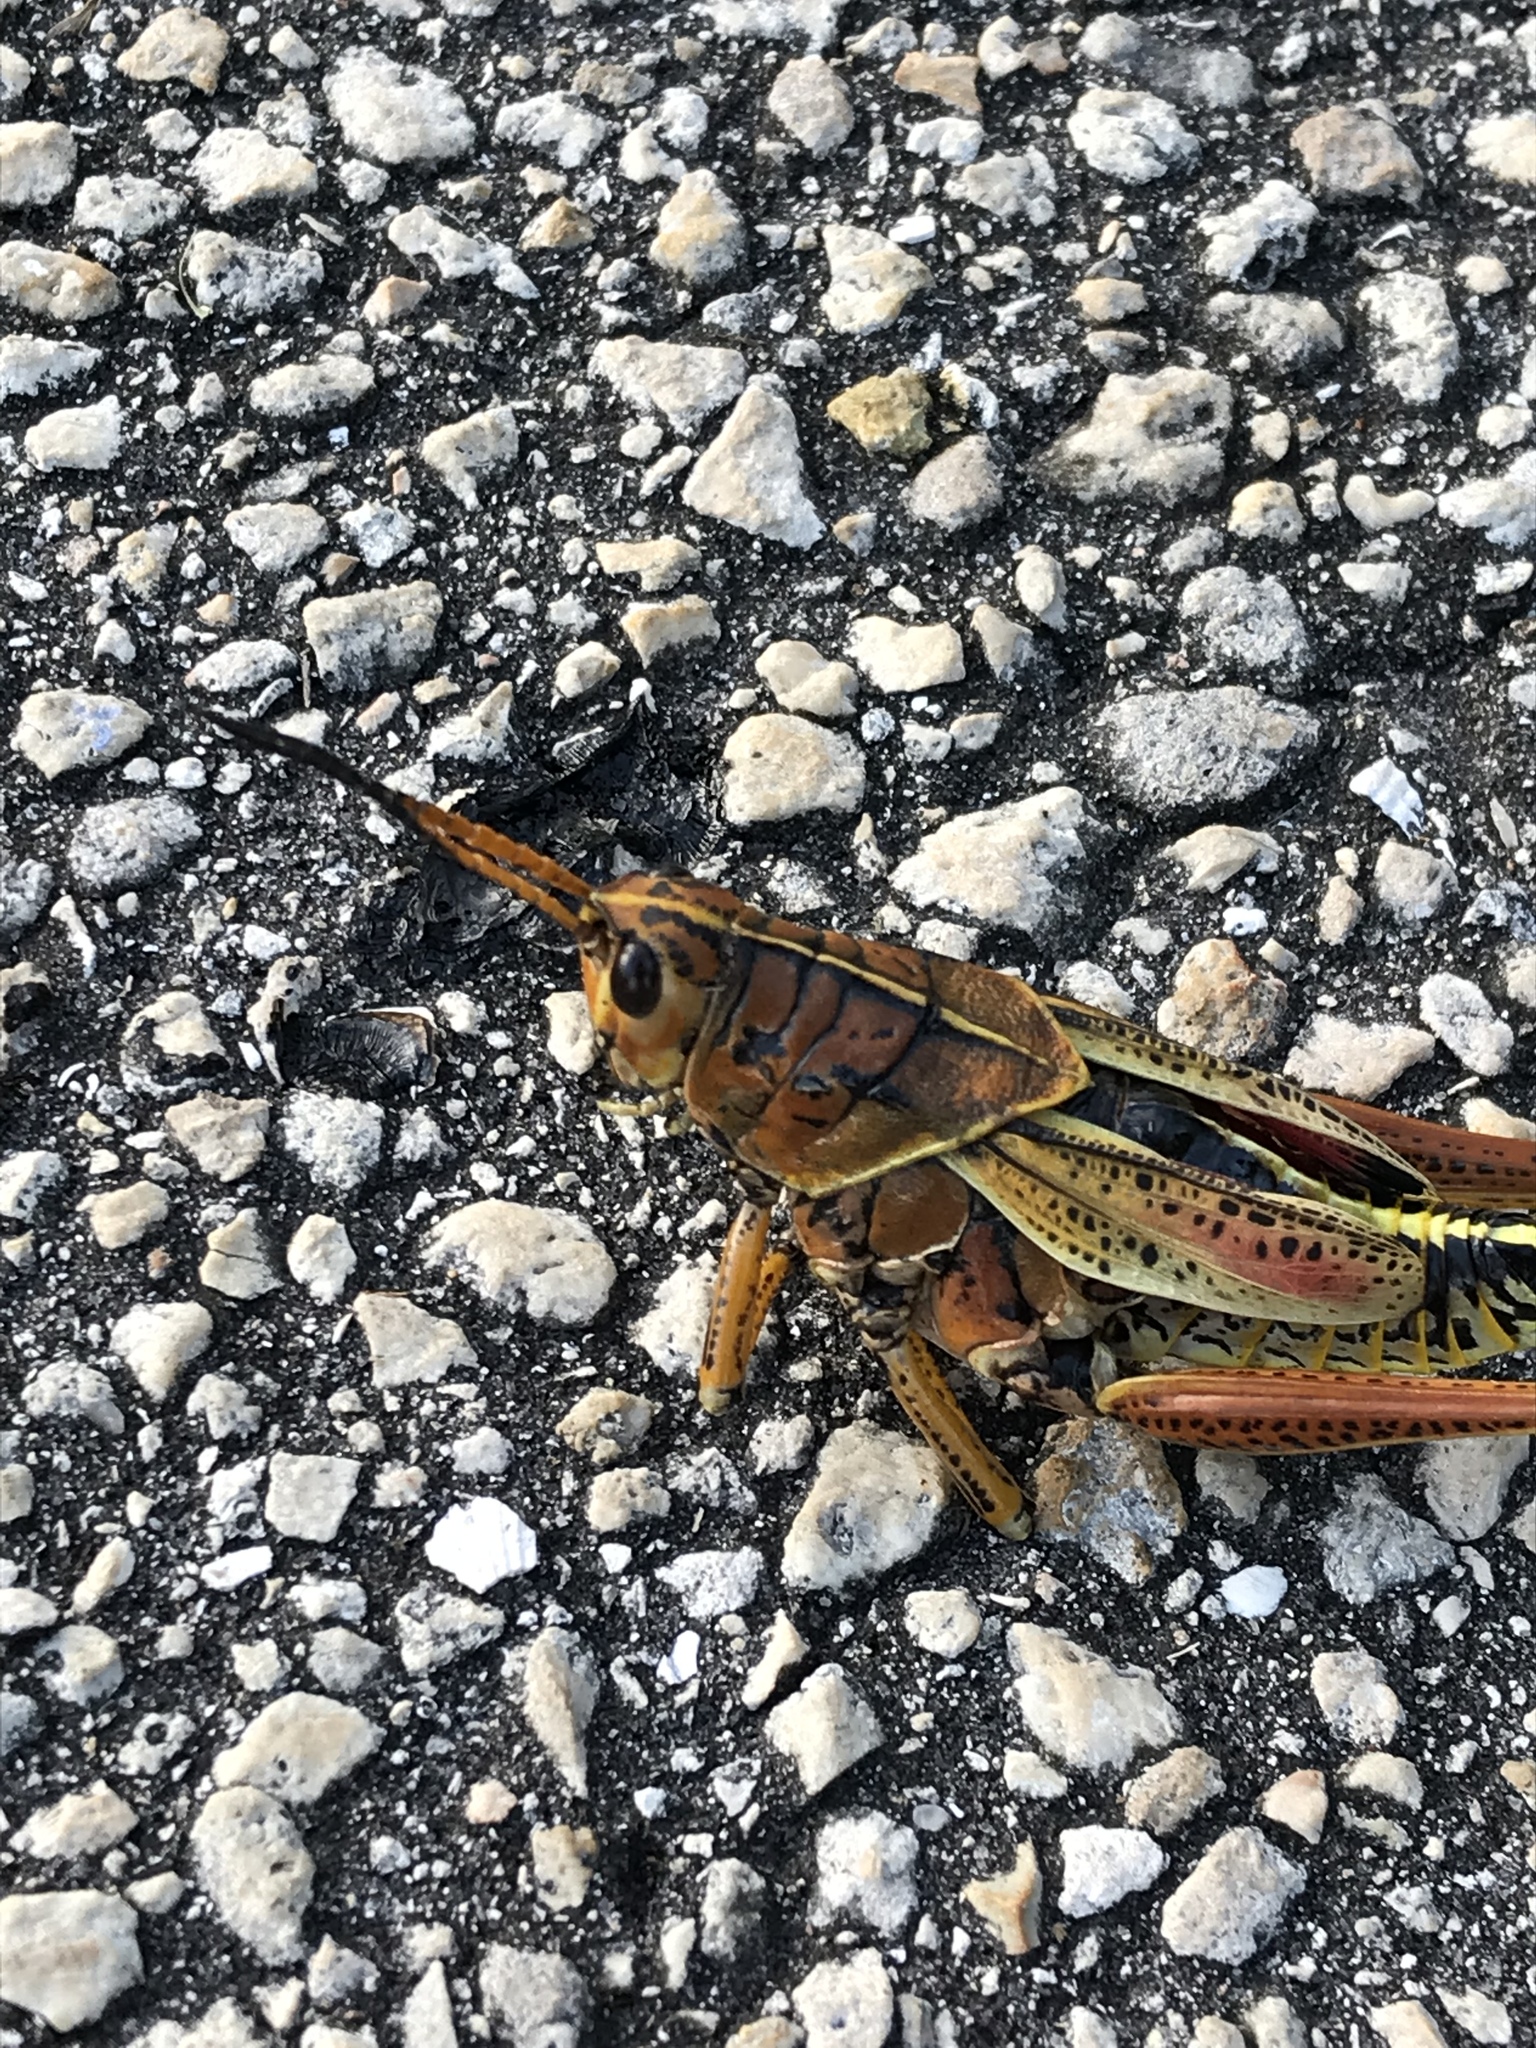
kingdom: Animalia
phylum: Arthropoda
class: Insecta
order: Orthoptera
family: Romaleidae
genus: Romalea
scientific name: Romalea microptera
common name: Eastern lubber grasshopper
